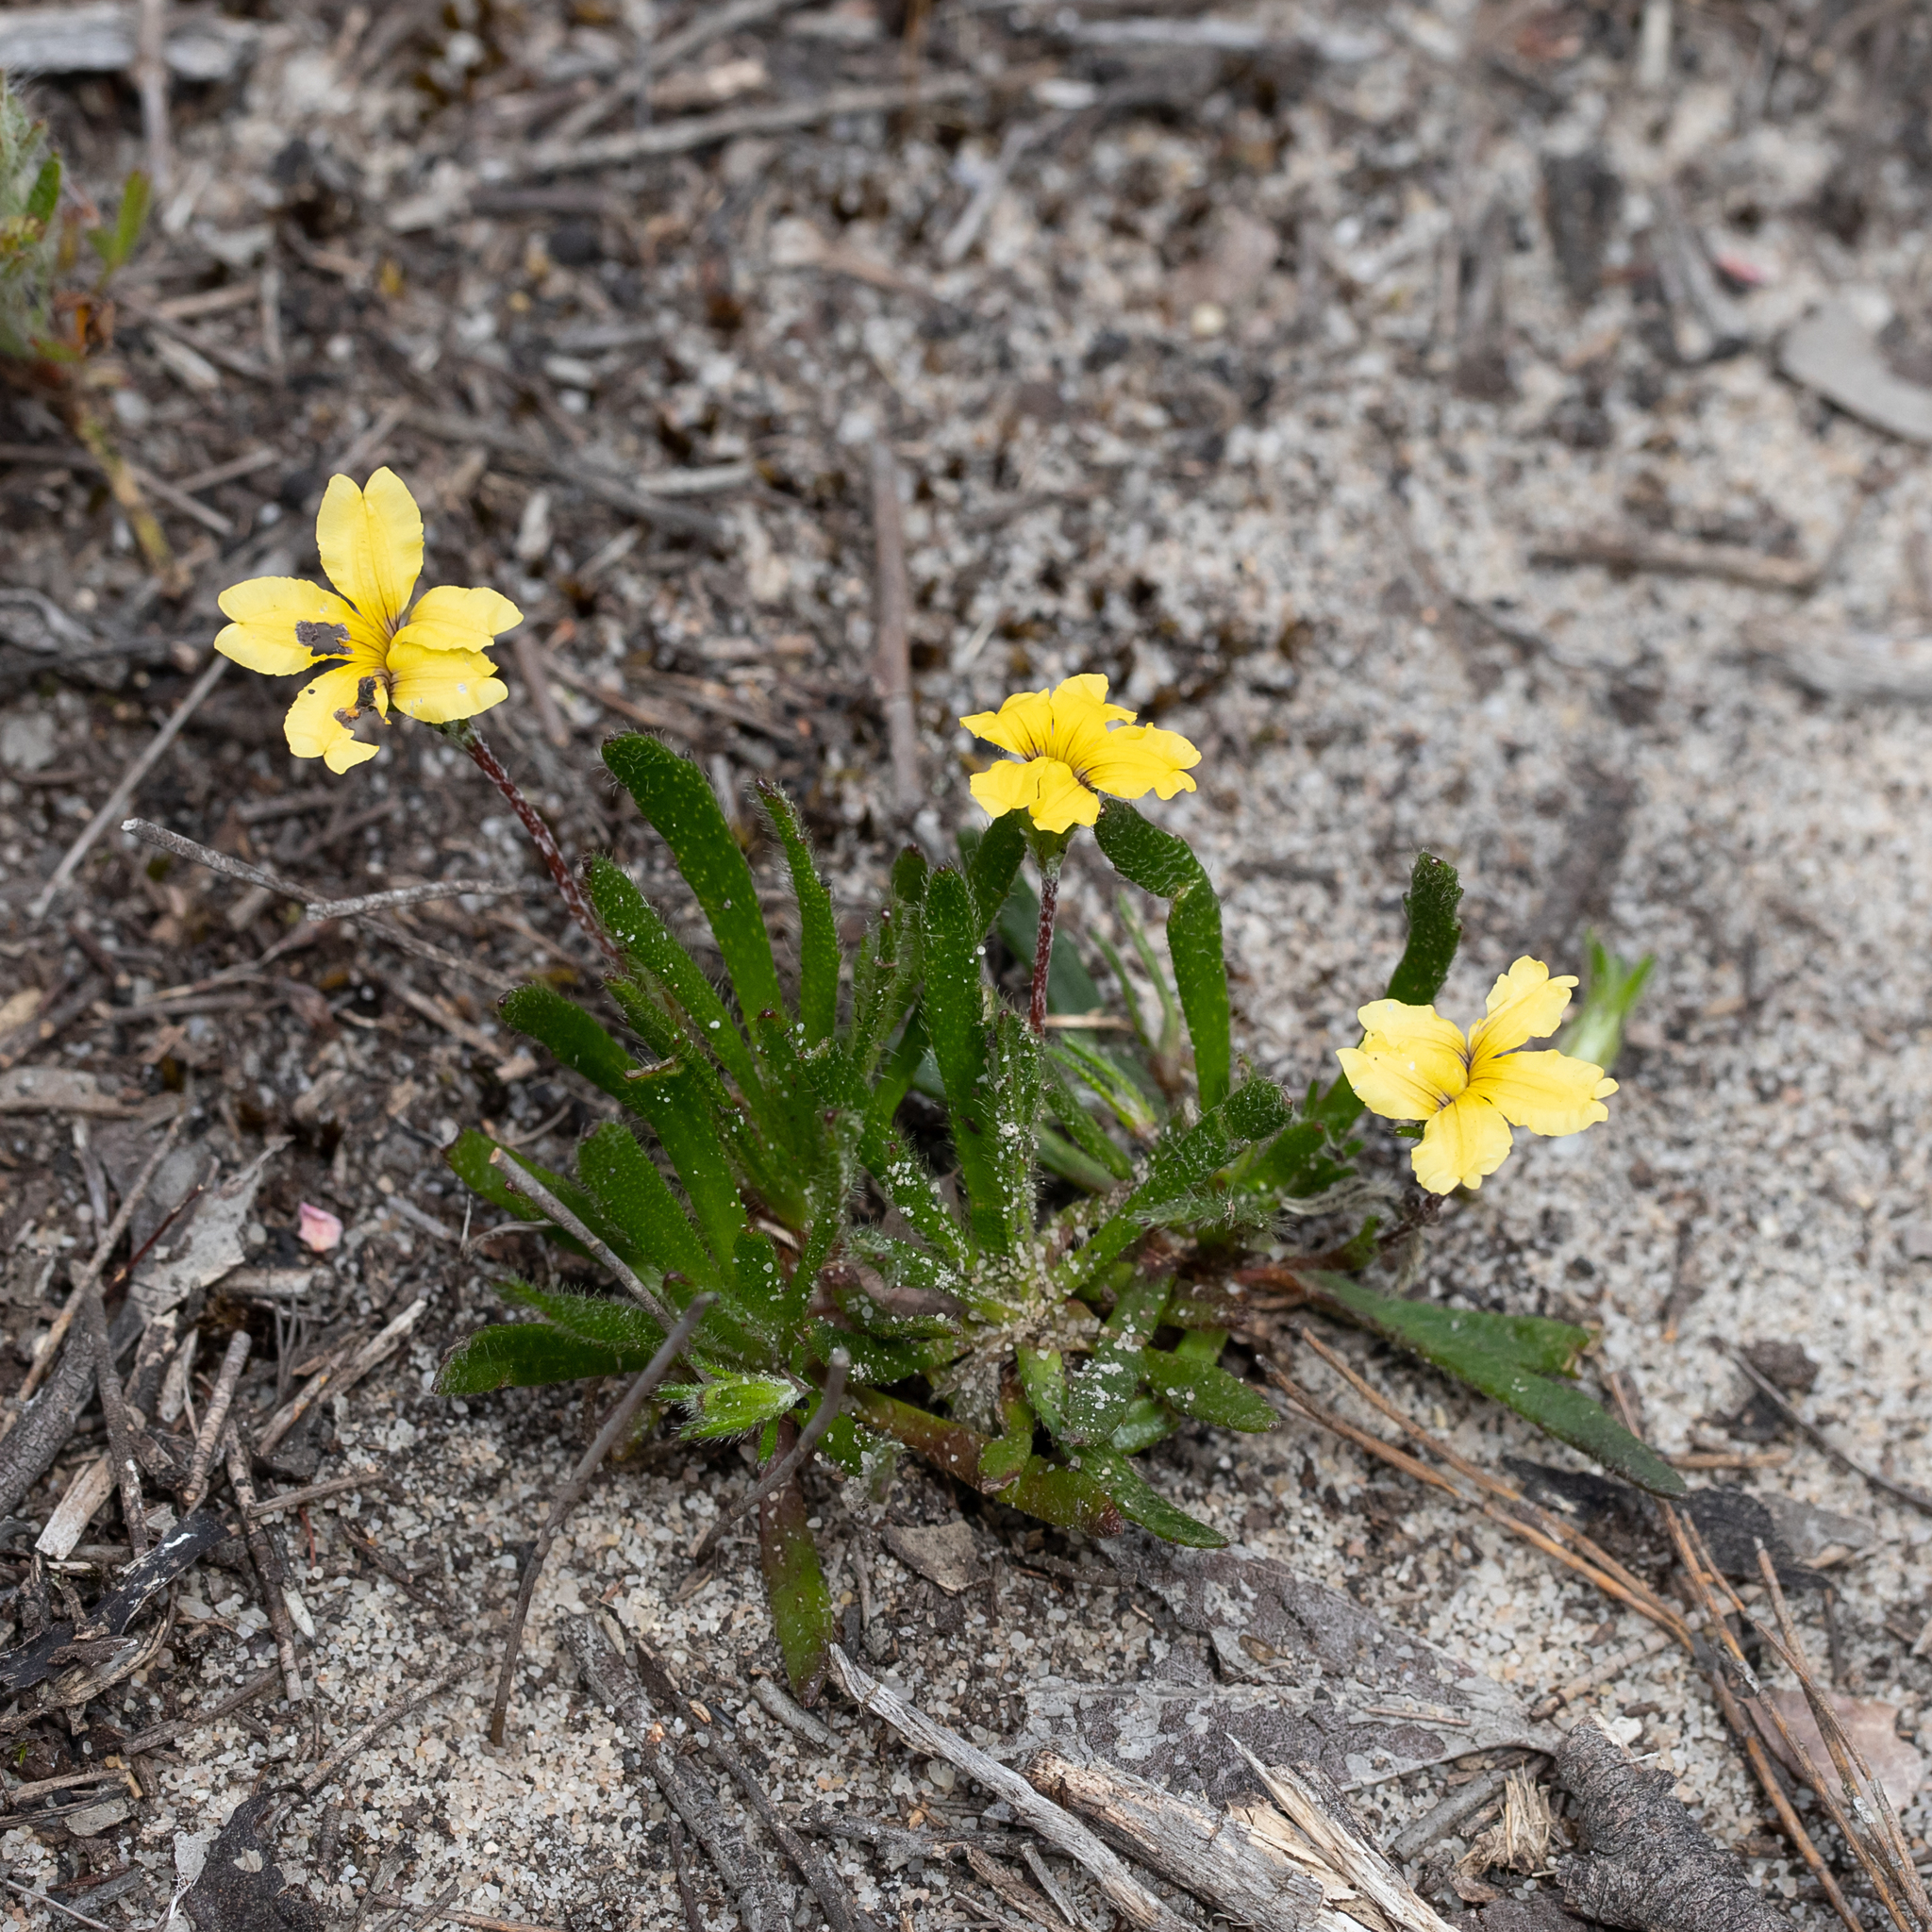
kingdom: Plantae
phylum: Tracheophyta
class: Magnoliopsida
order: Asterales
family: Goodeniaceae
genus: Goodenia
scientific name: Goodenia geniculata
